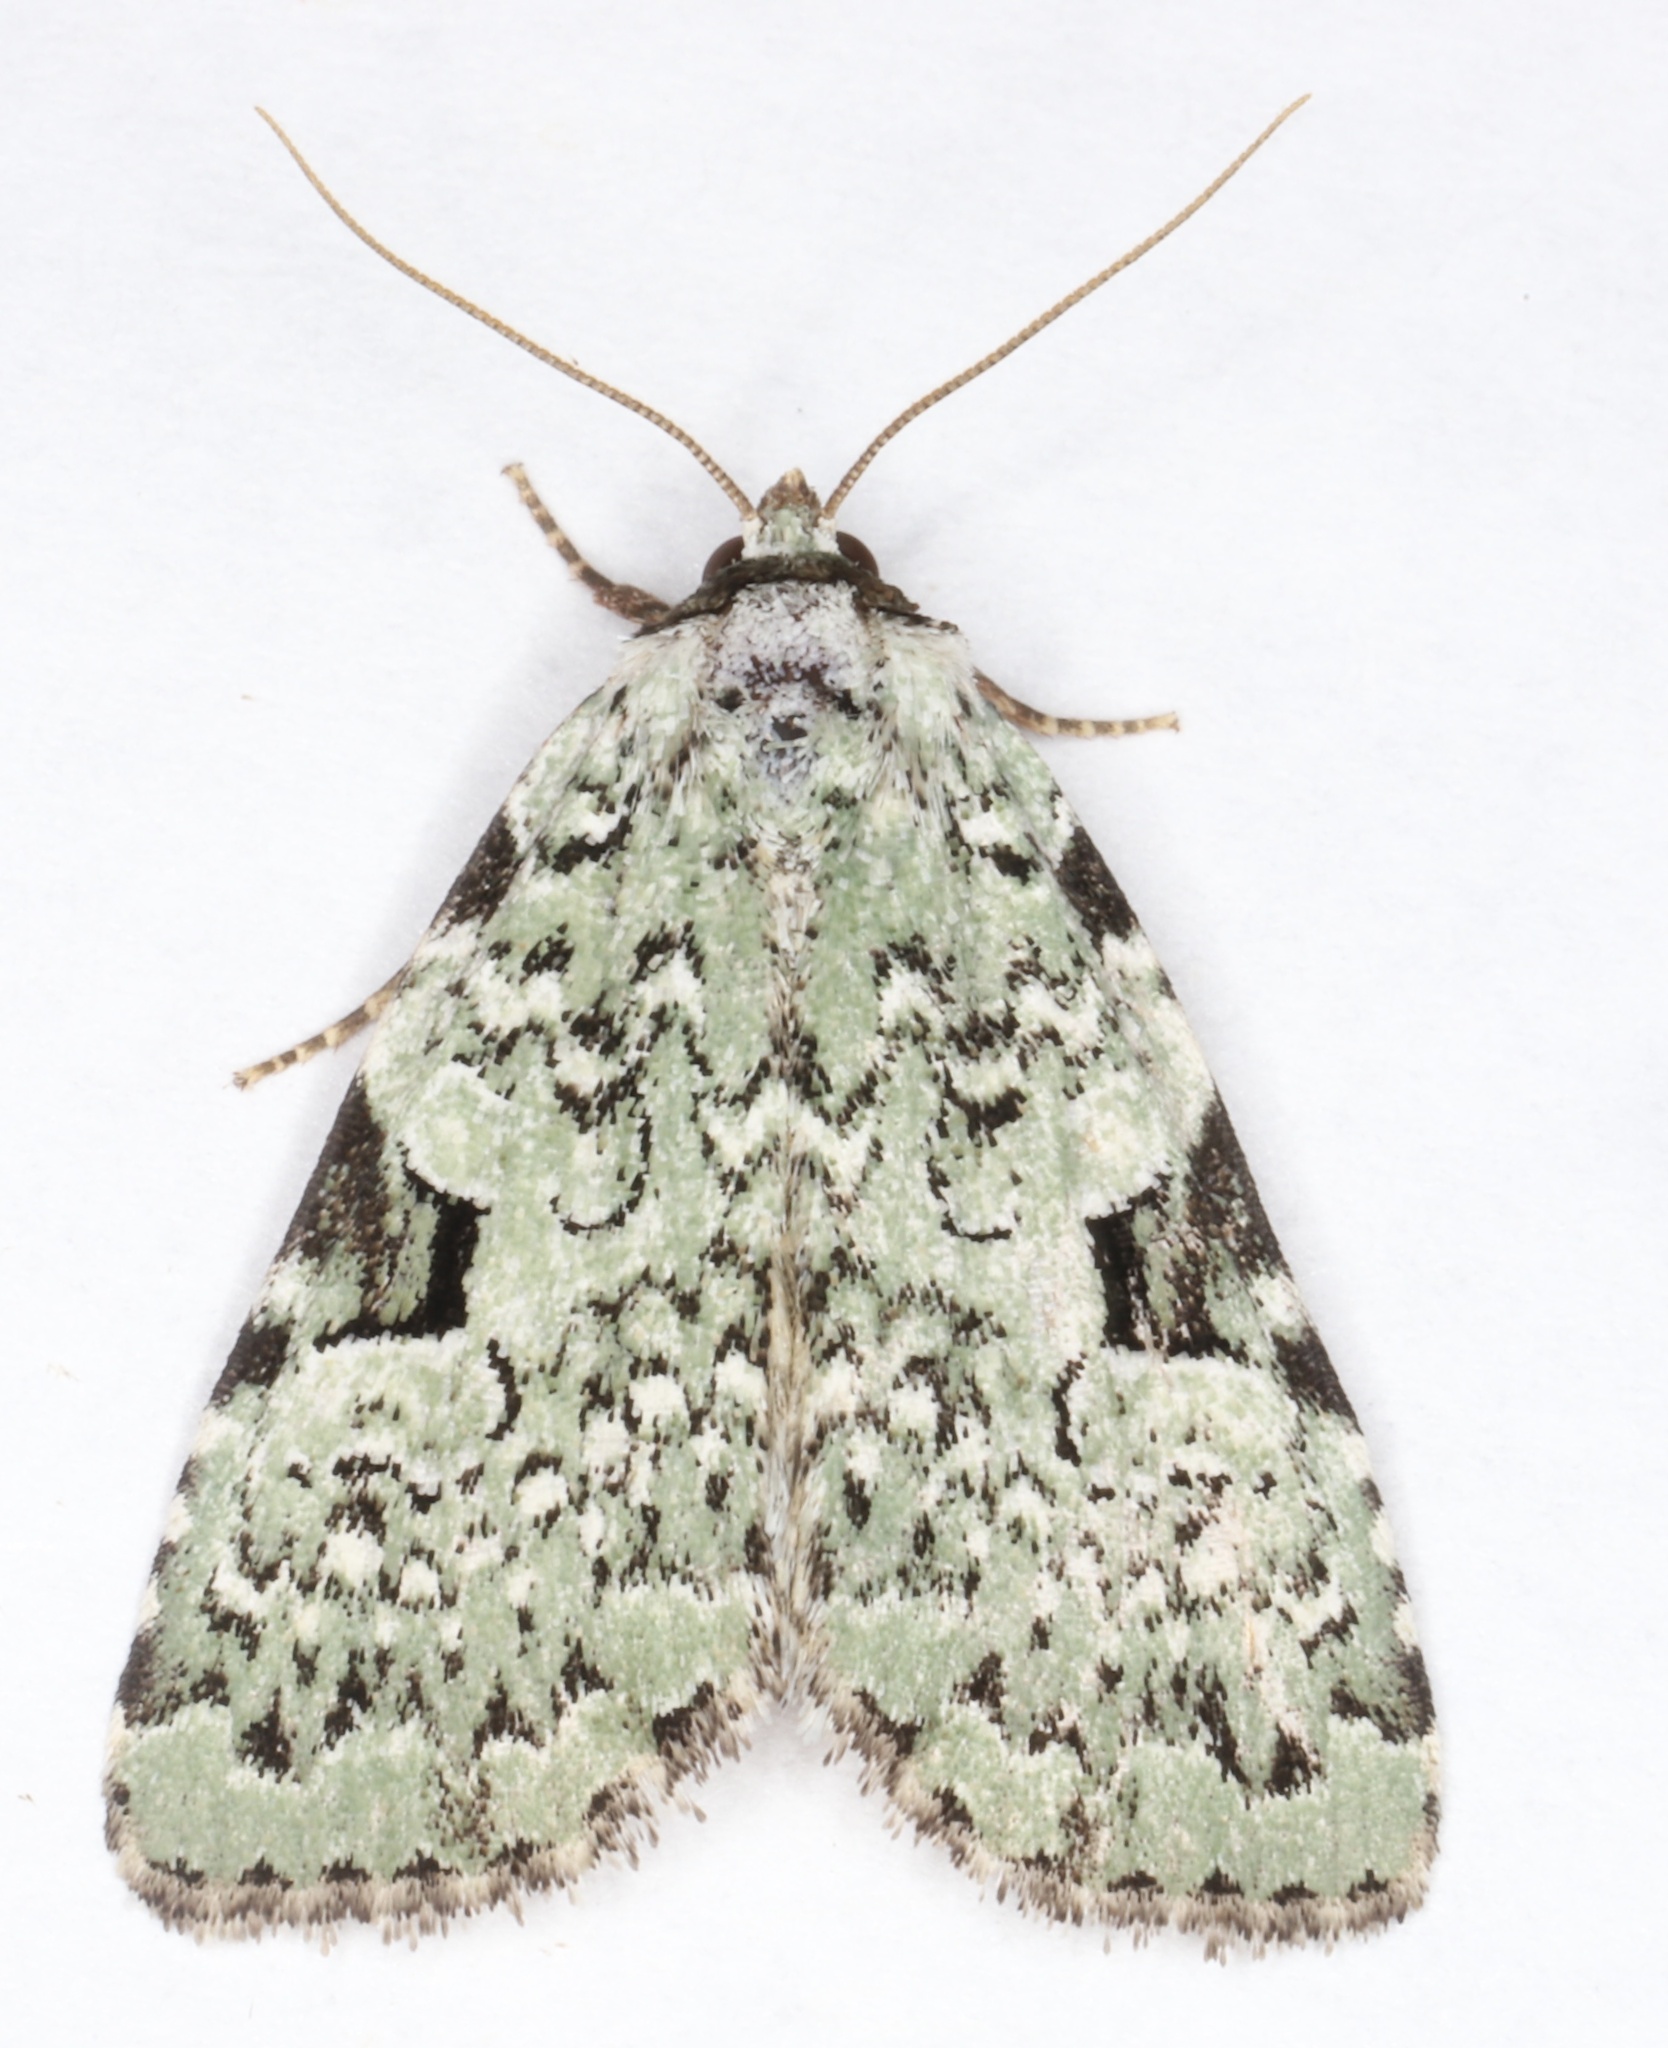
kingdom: Animalia
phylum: Arthropoda
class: Insecta
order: Lepidoptera
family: Noctuidae
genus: Leuconycta
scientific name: Leuconycta diphteroides
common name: Green leuconycta moth
